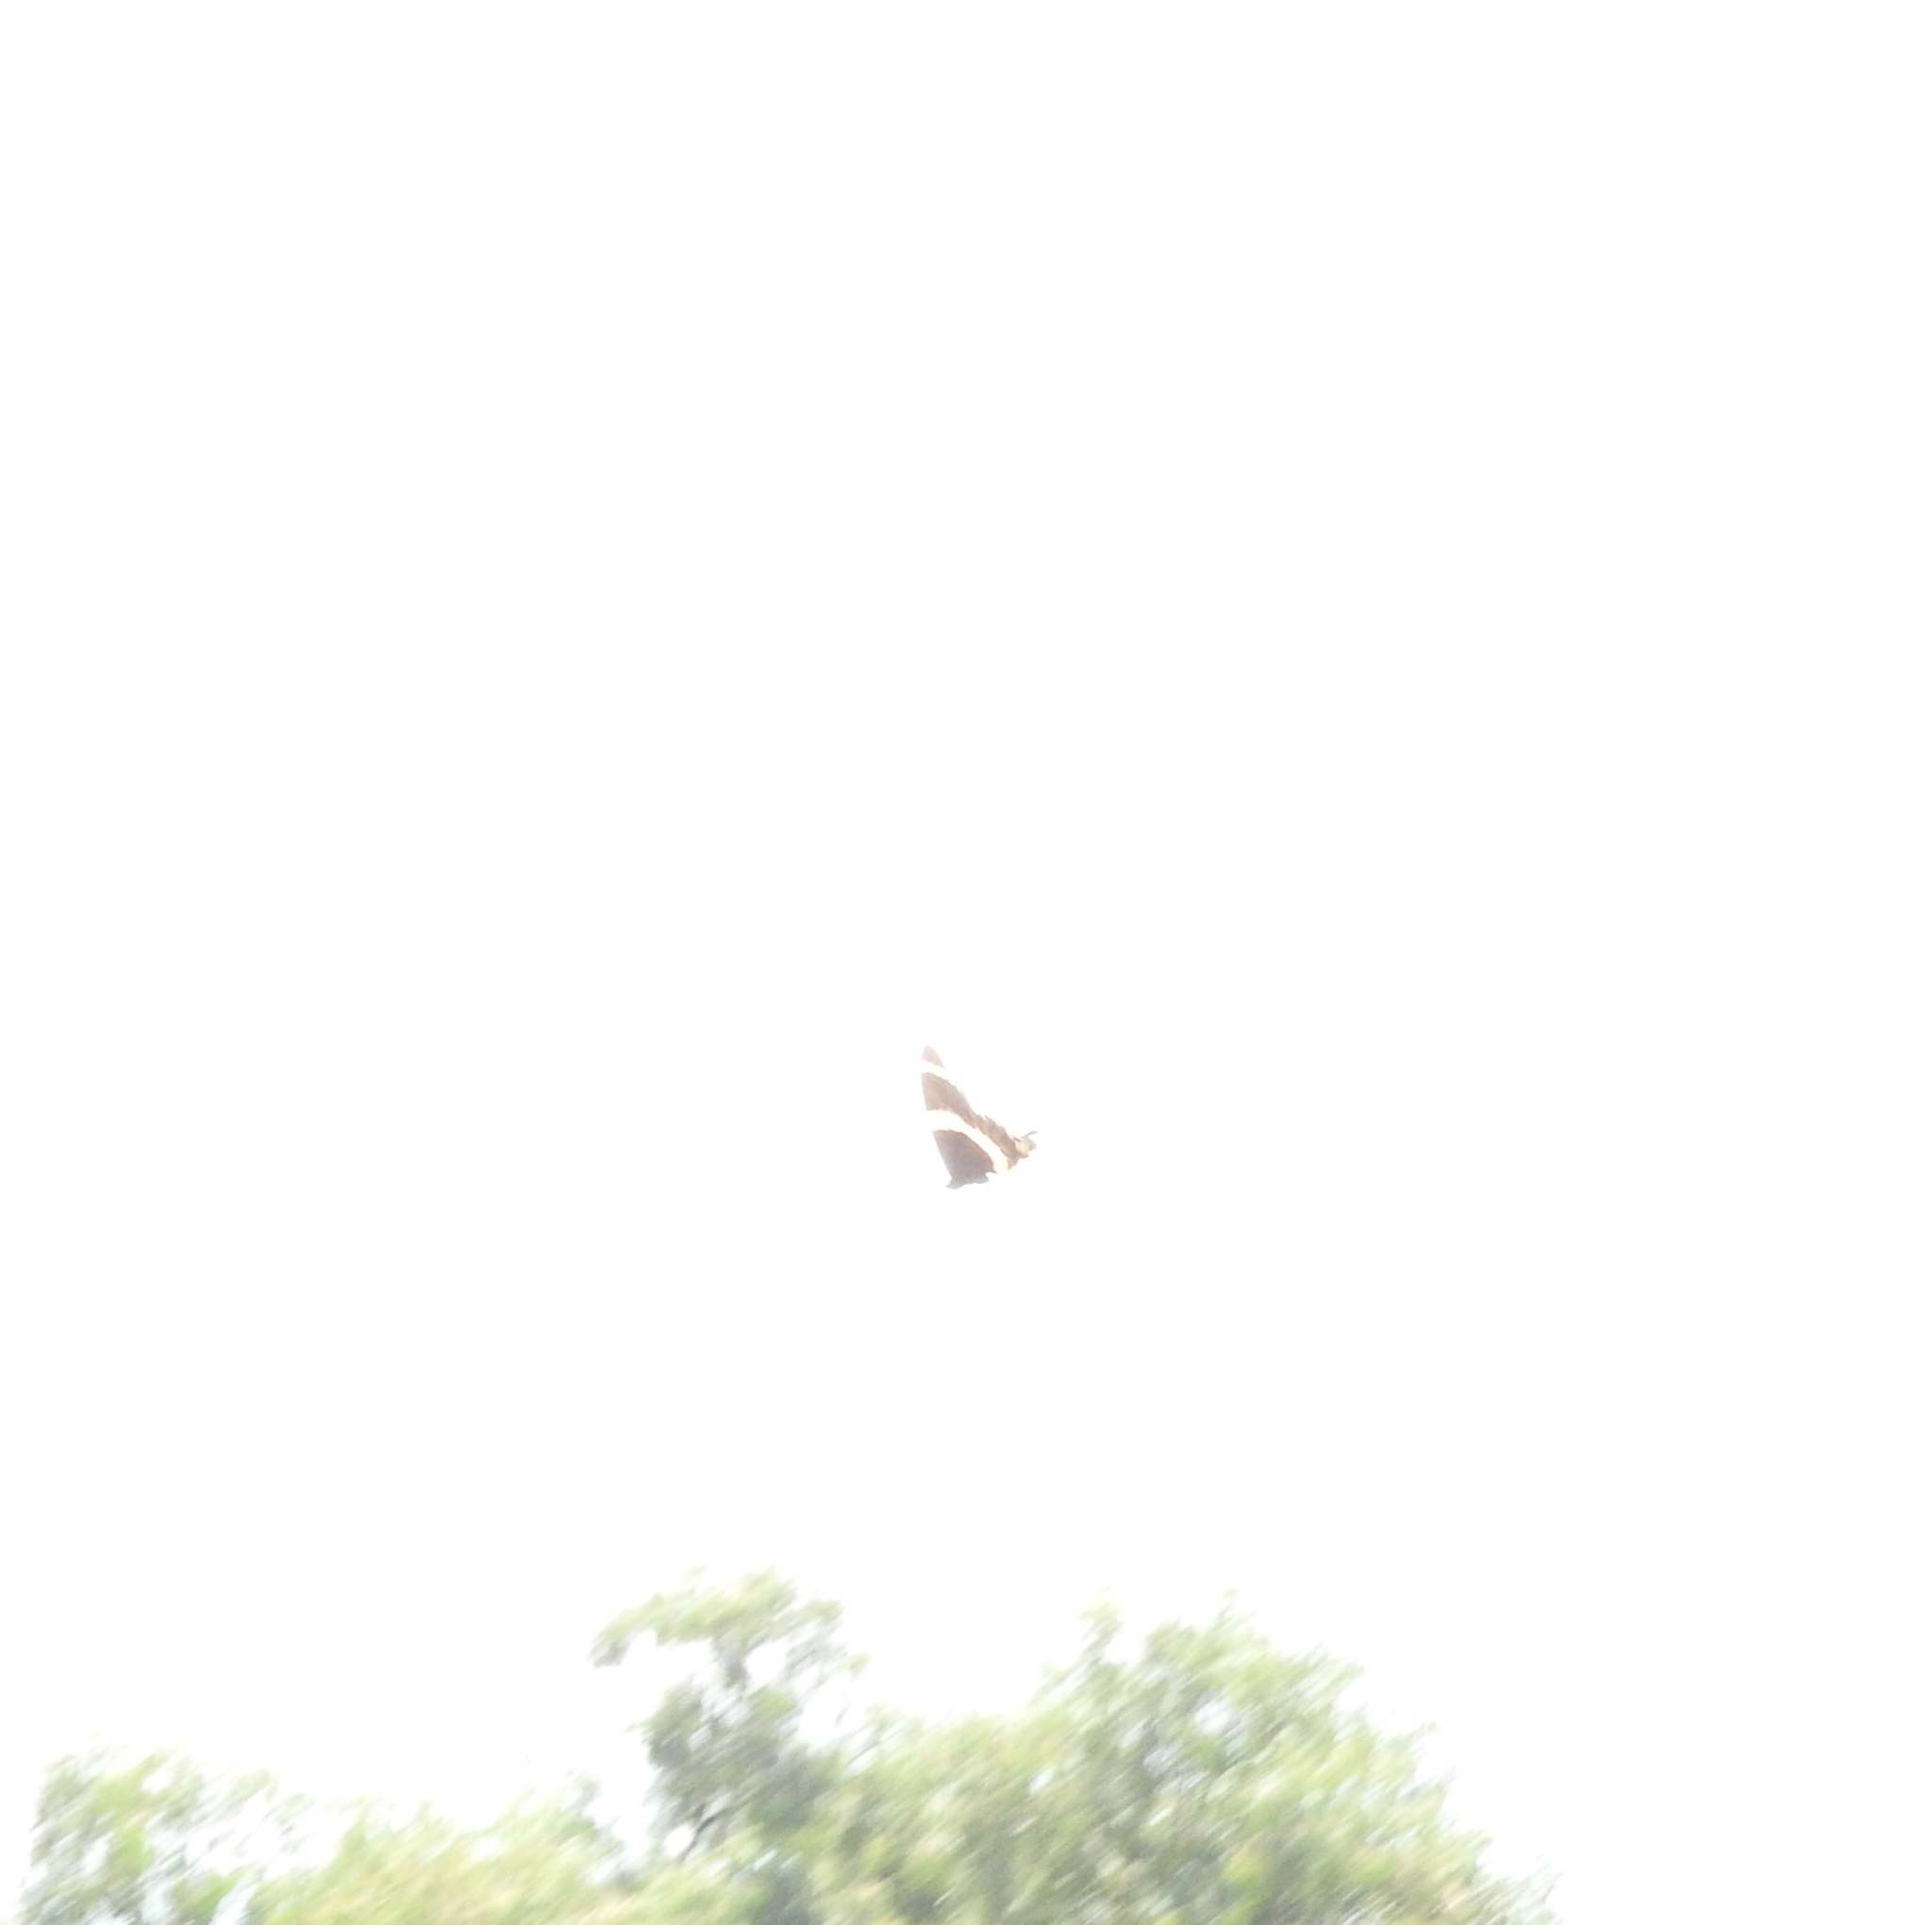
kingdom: Animalia
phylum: Arthropoda
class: Insecta
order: Lepidoptera
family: Papilionidae
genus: Papilio
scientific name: Papilio garamas
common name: Magnificent swallowtail
